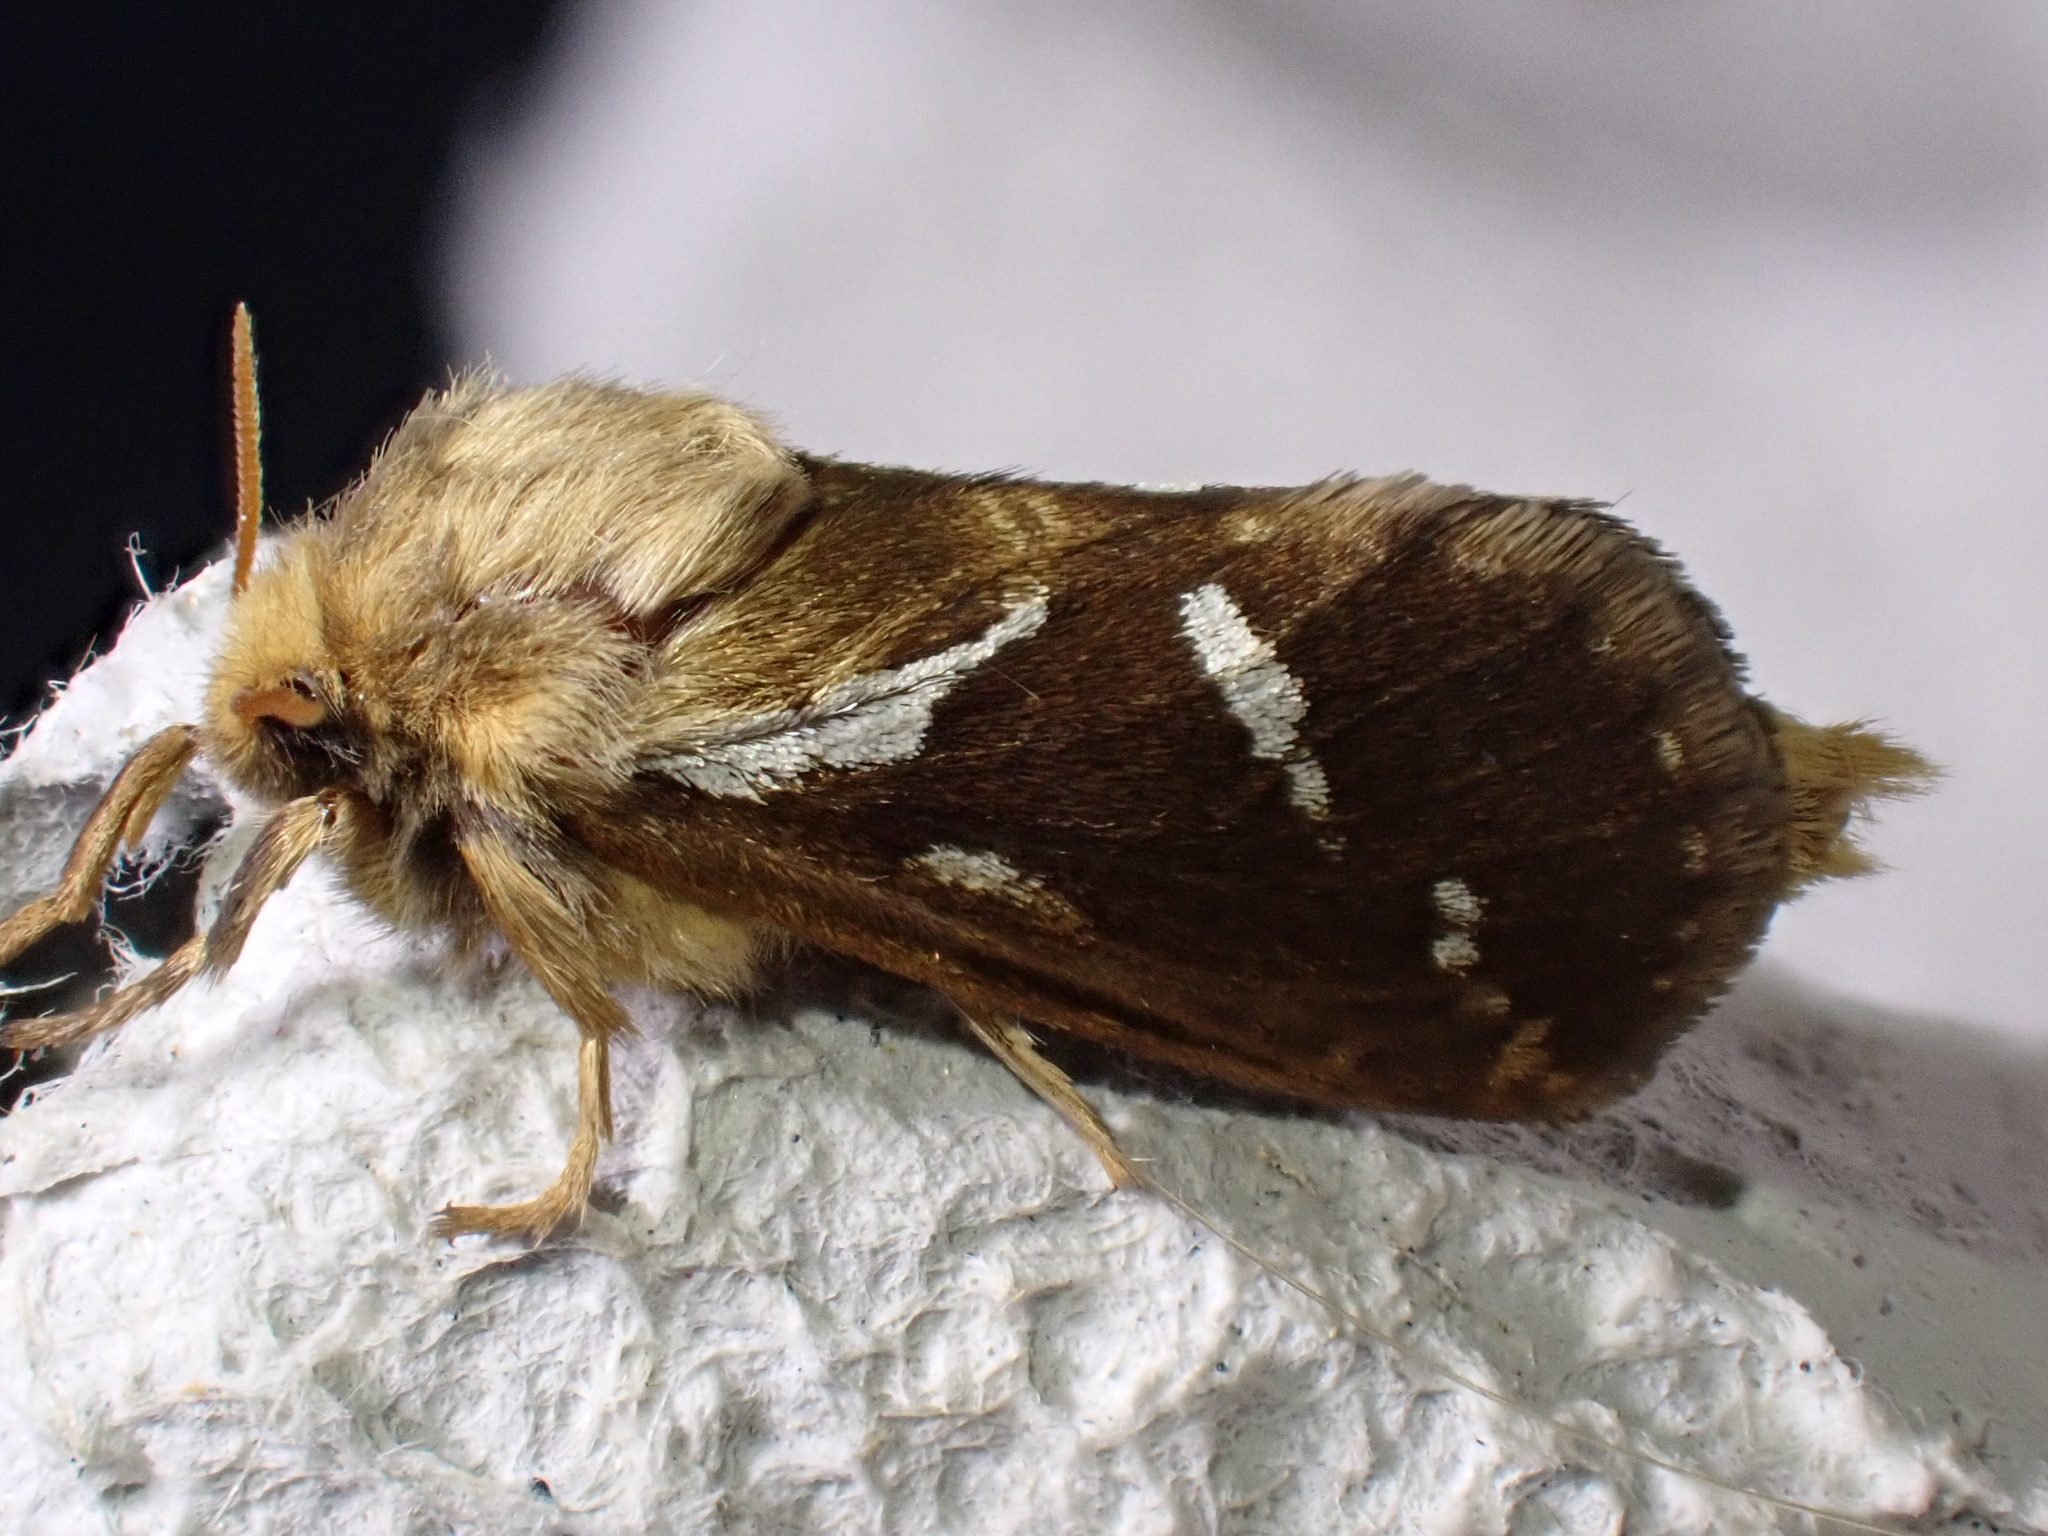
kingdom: Animalia
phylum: Arthropoda
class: Insecta
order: Lepidoptera
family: Hepialidae
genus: Korscheltellus
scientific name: Korscheltellus lupulina
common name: Common swift
